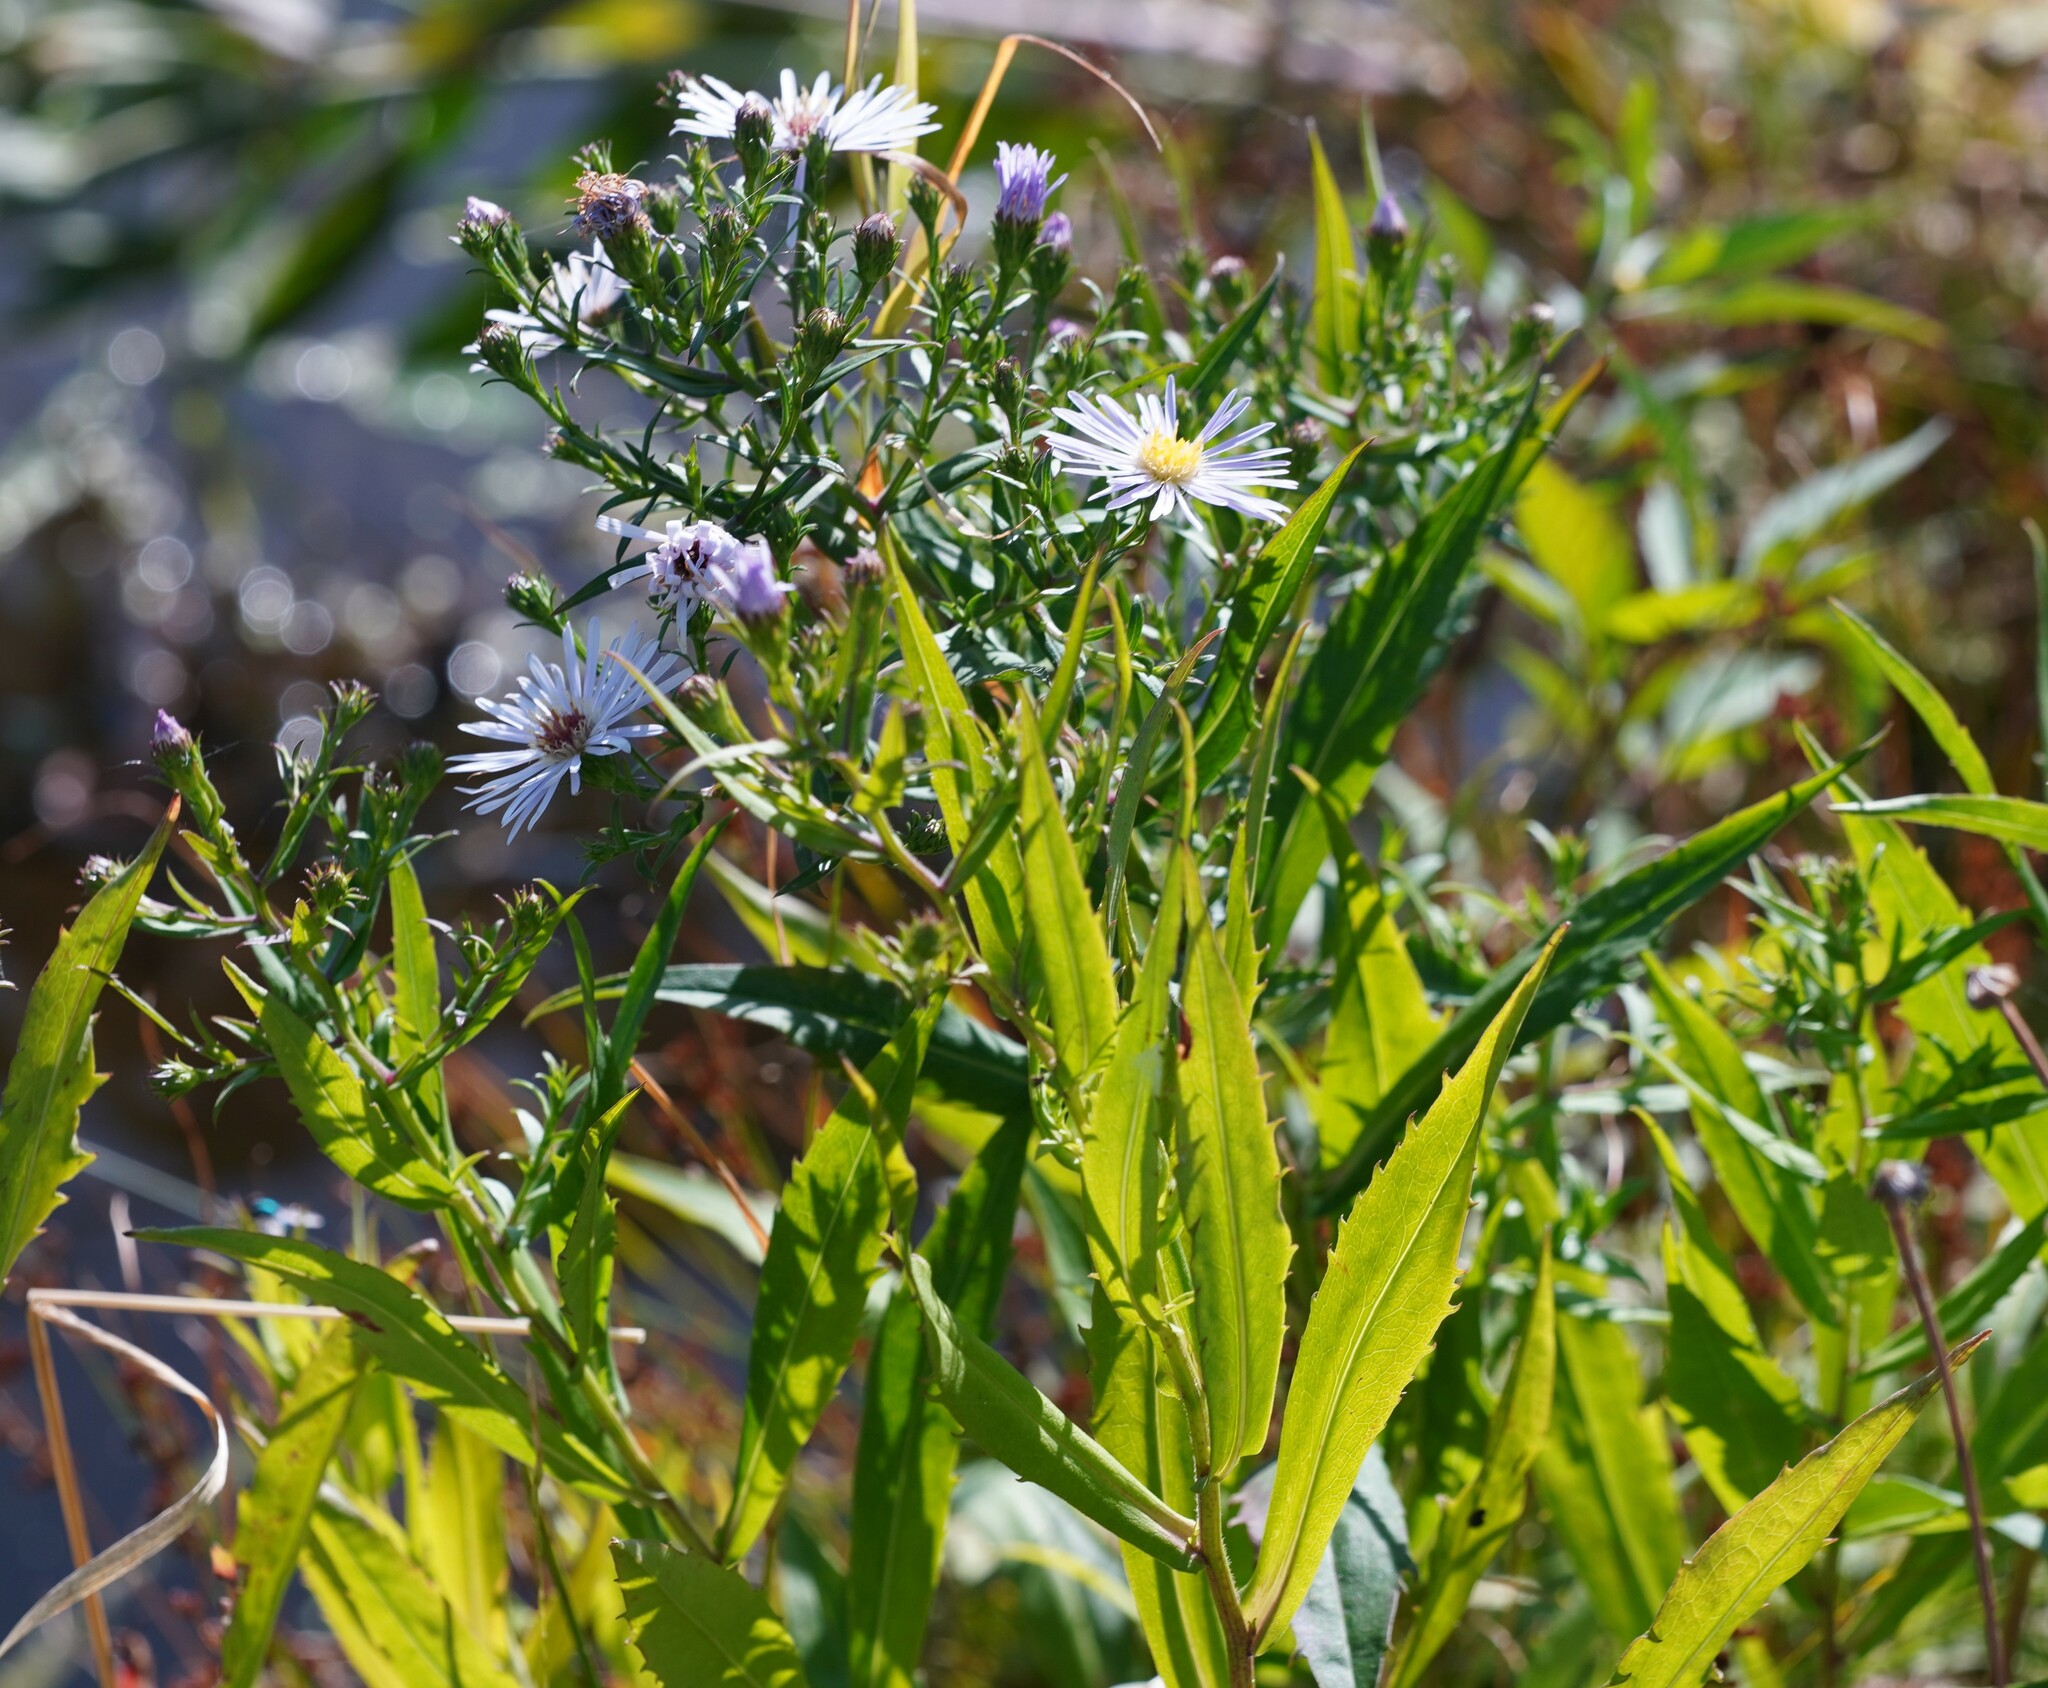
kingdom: Plantae
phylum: Tracheophyta
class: Magnoliopsida
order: Asterales
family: Asteraceae
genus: Symphyotrichum
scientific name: Symphyotrichum novi-belgii
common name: Michaelmas daisy
